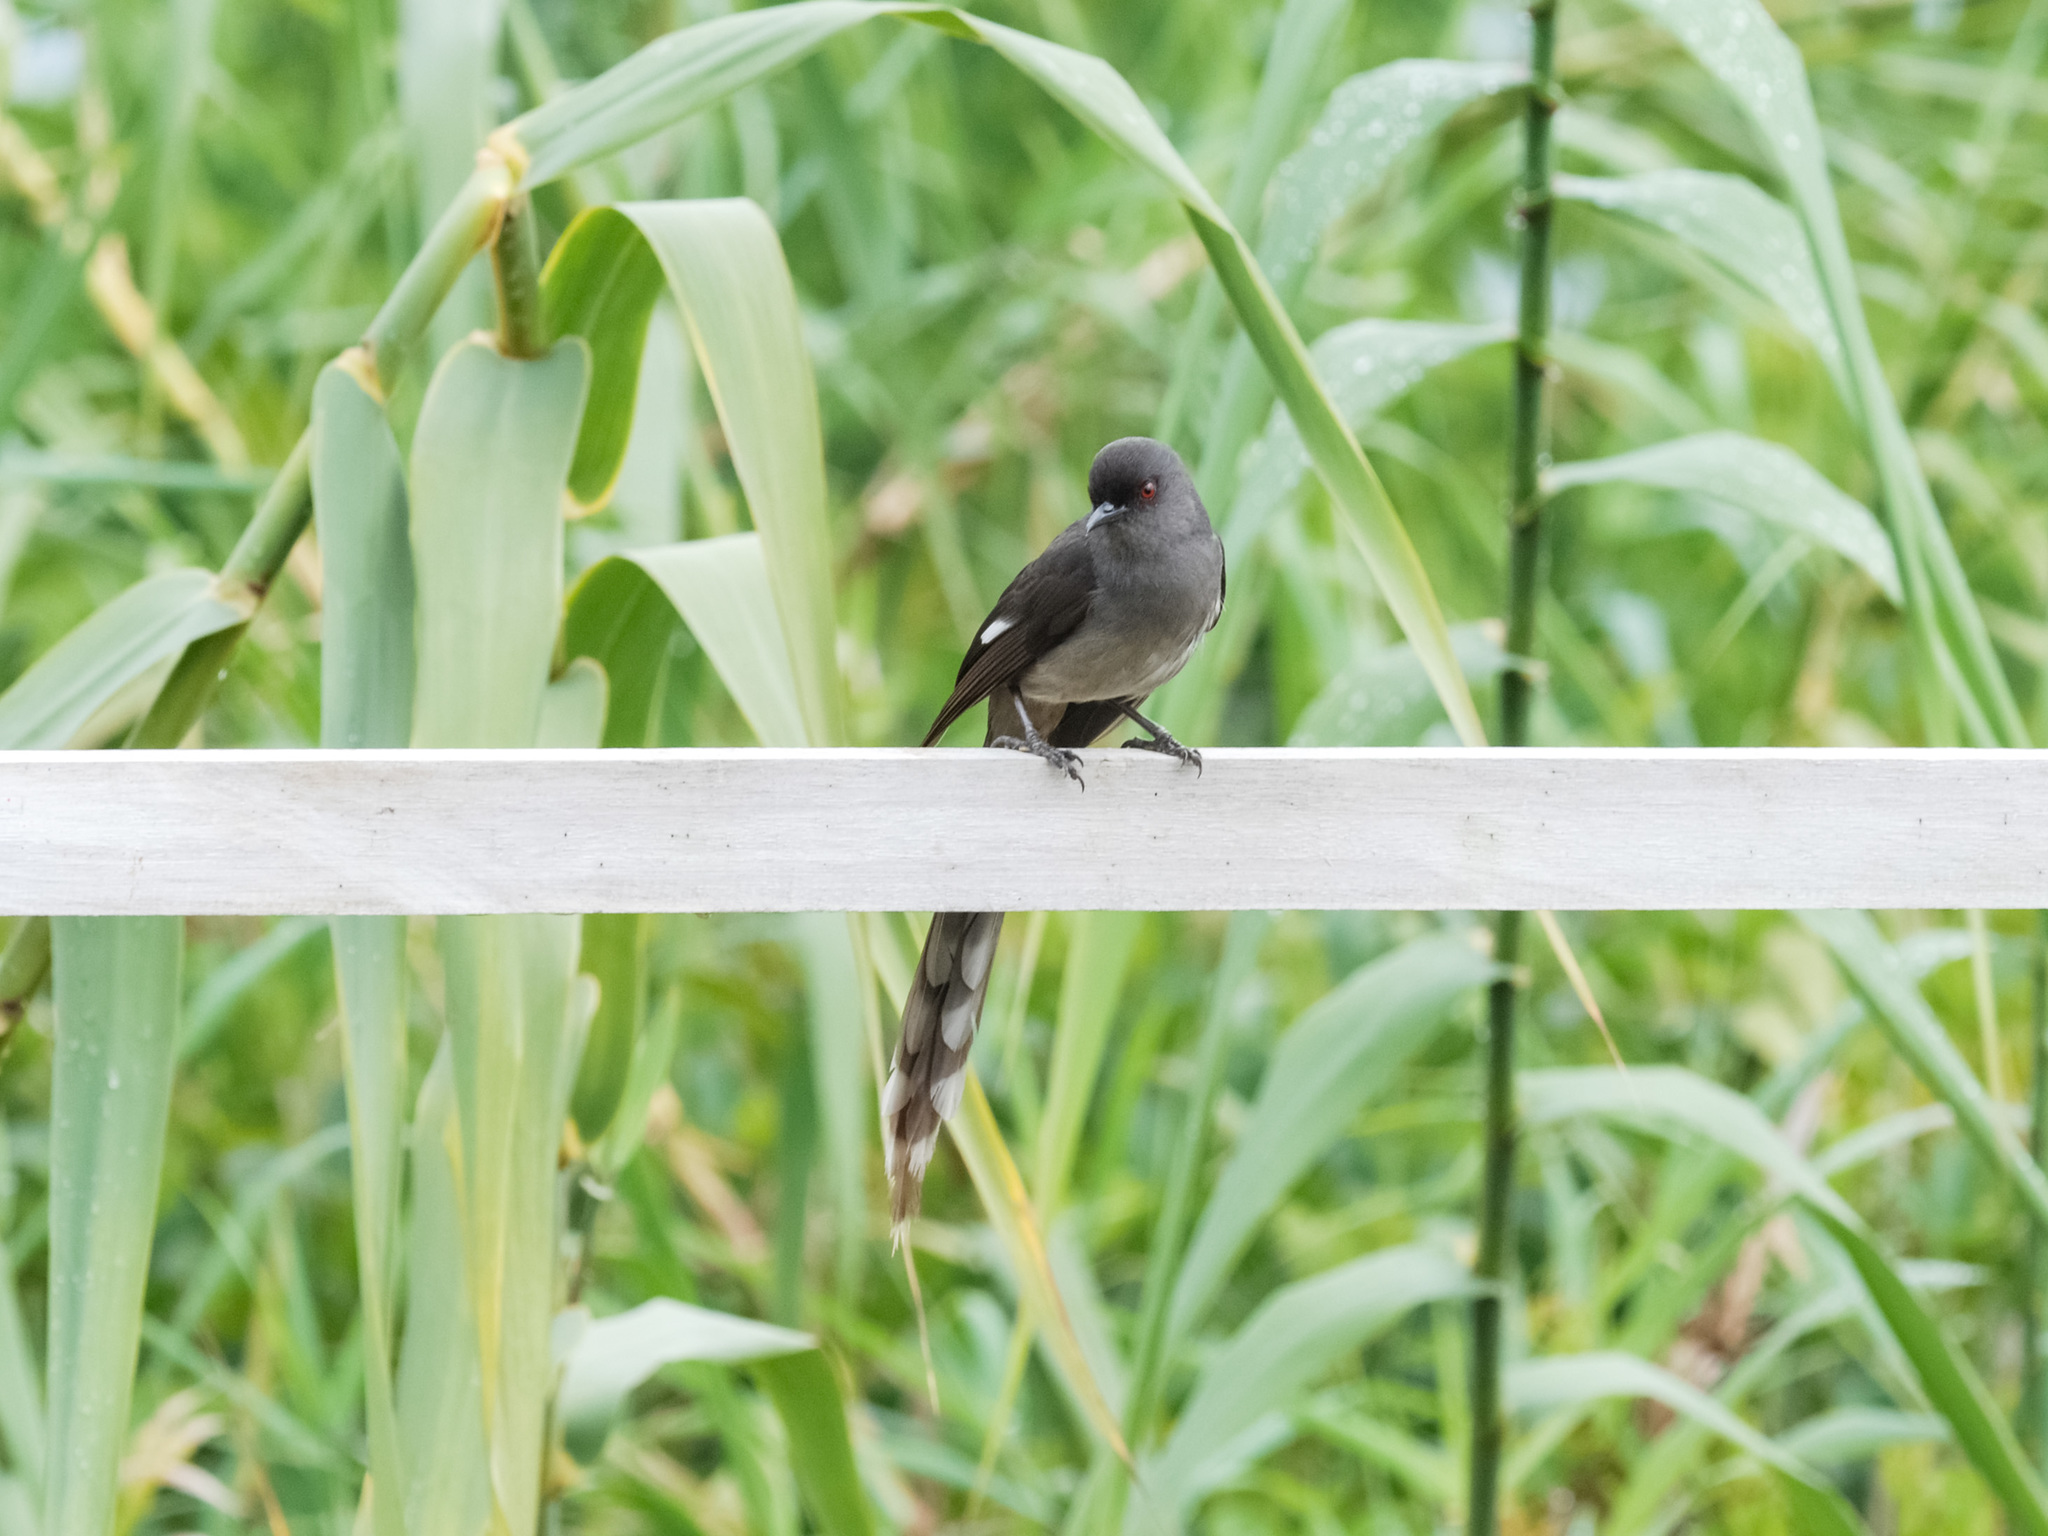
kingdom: Animalia
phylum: Chordata
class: Aves
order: Passeriformes
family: Leiothrichidae
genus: Heterophasia
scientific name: Heterophasia picaoides
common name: Long-tailed sibia
